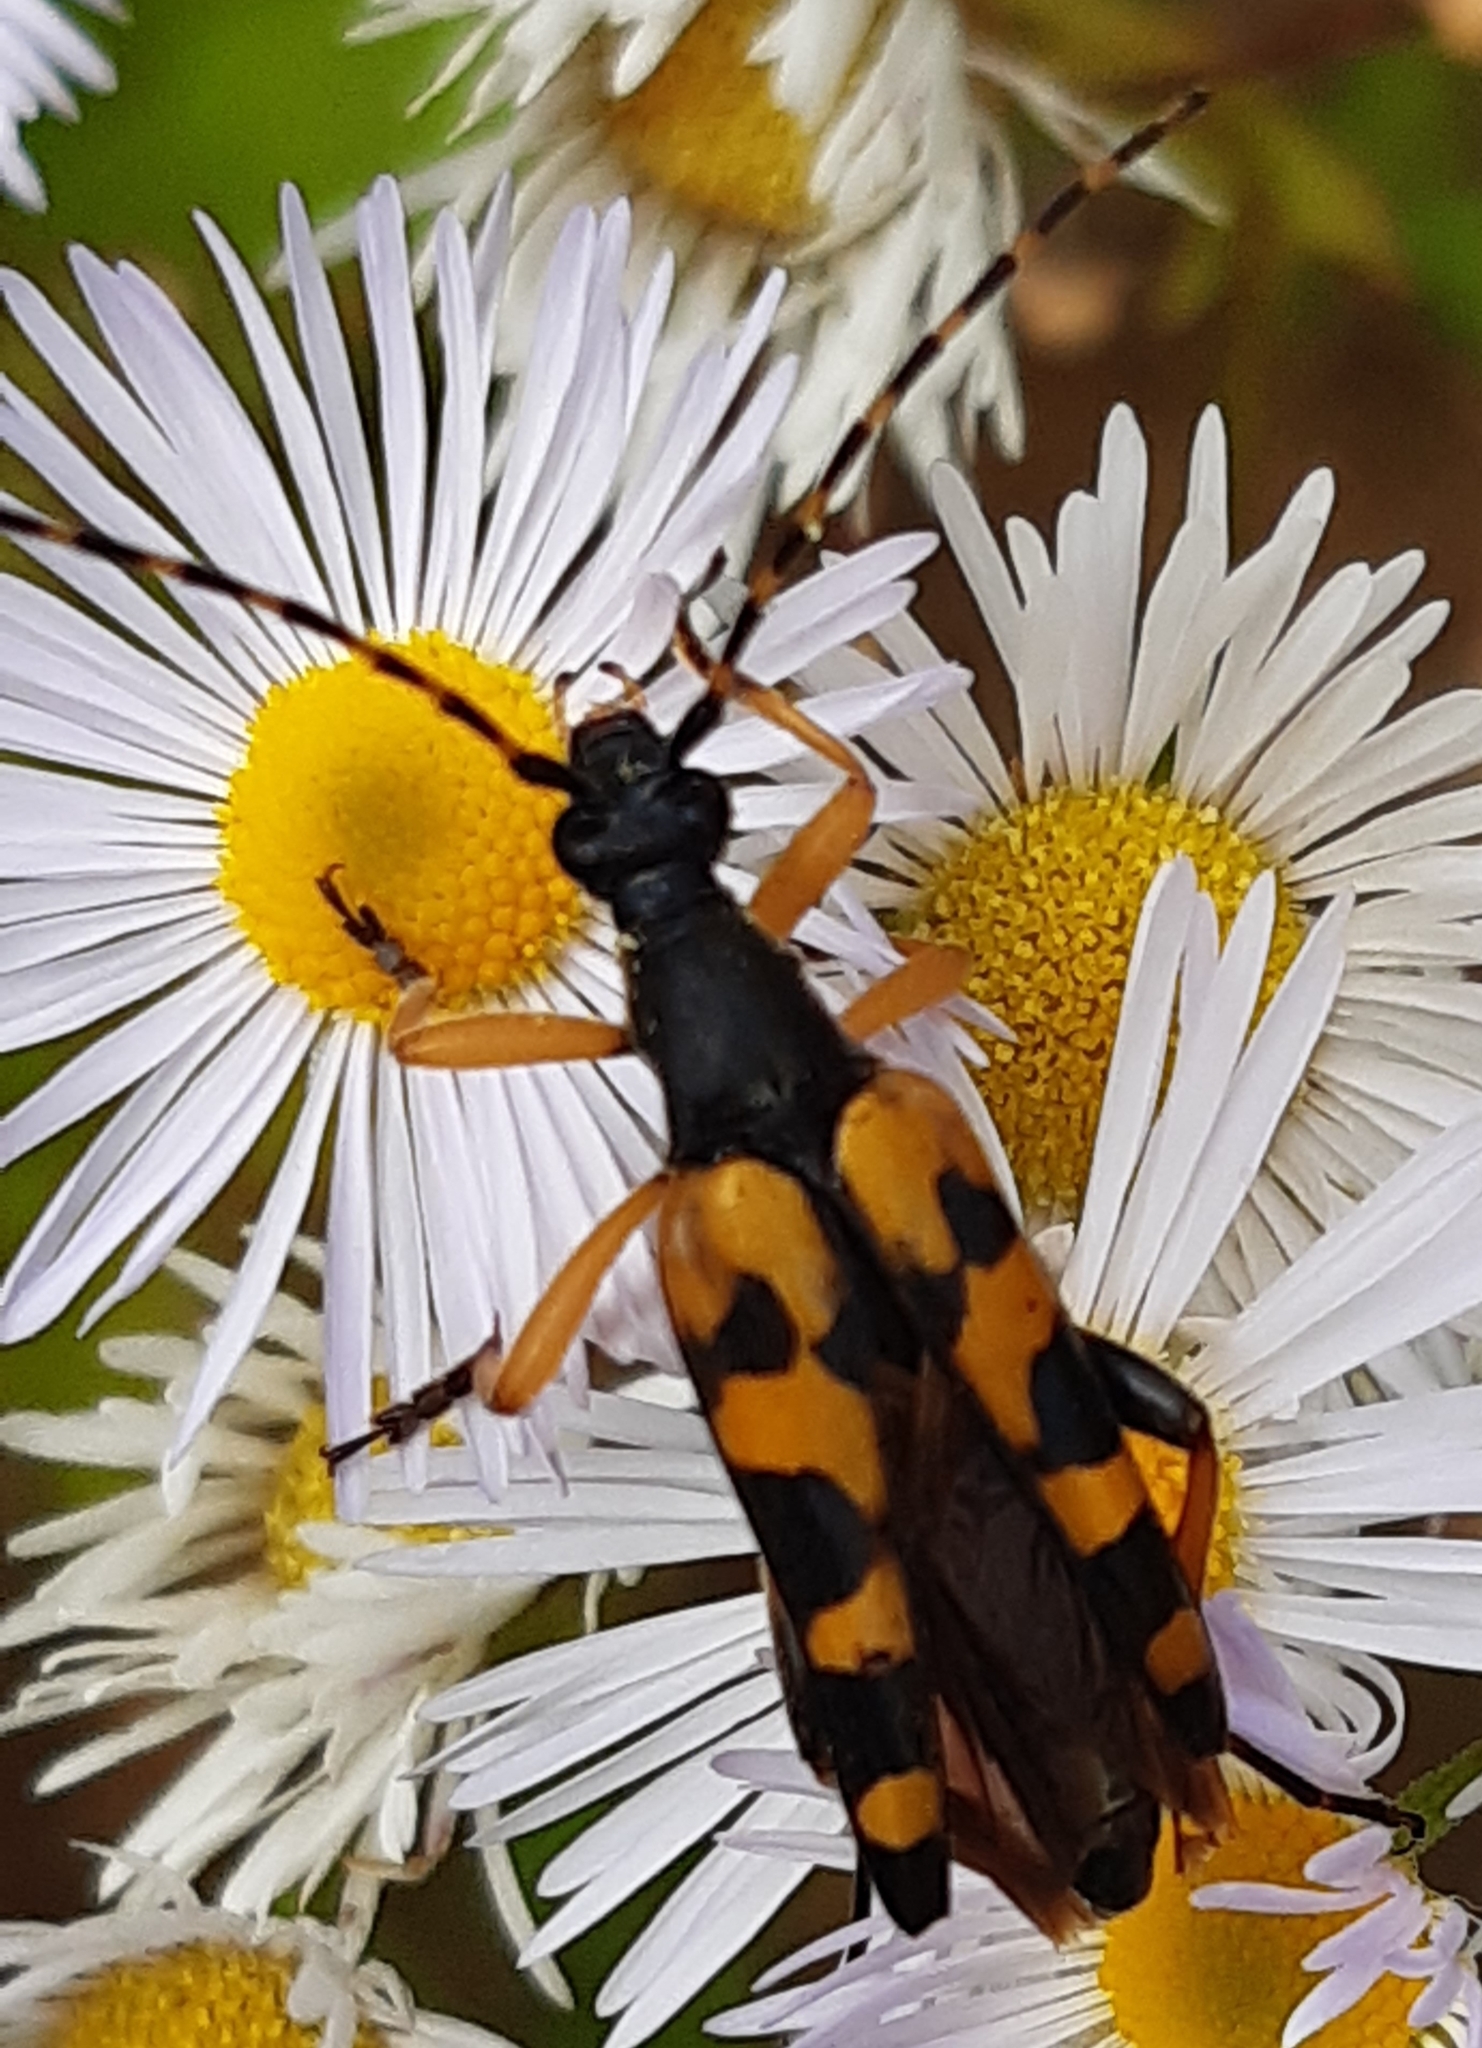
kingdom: Animalia
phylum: Arthropoda
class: Insecta
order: Coleoptera
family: Cerambycidae
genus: Rutpela
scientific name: Rutpela maculata
